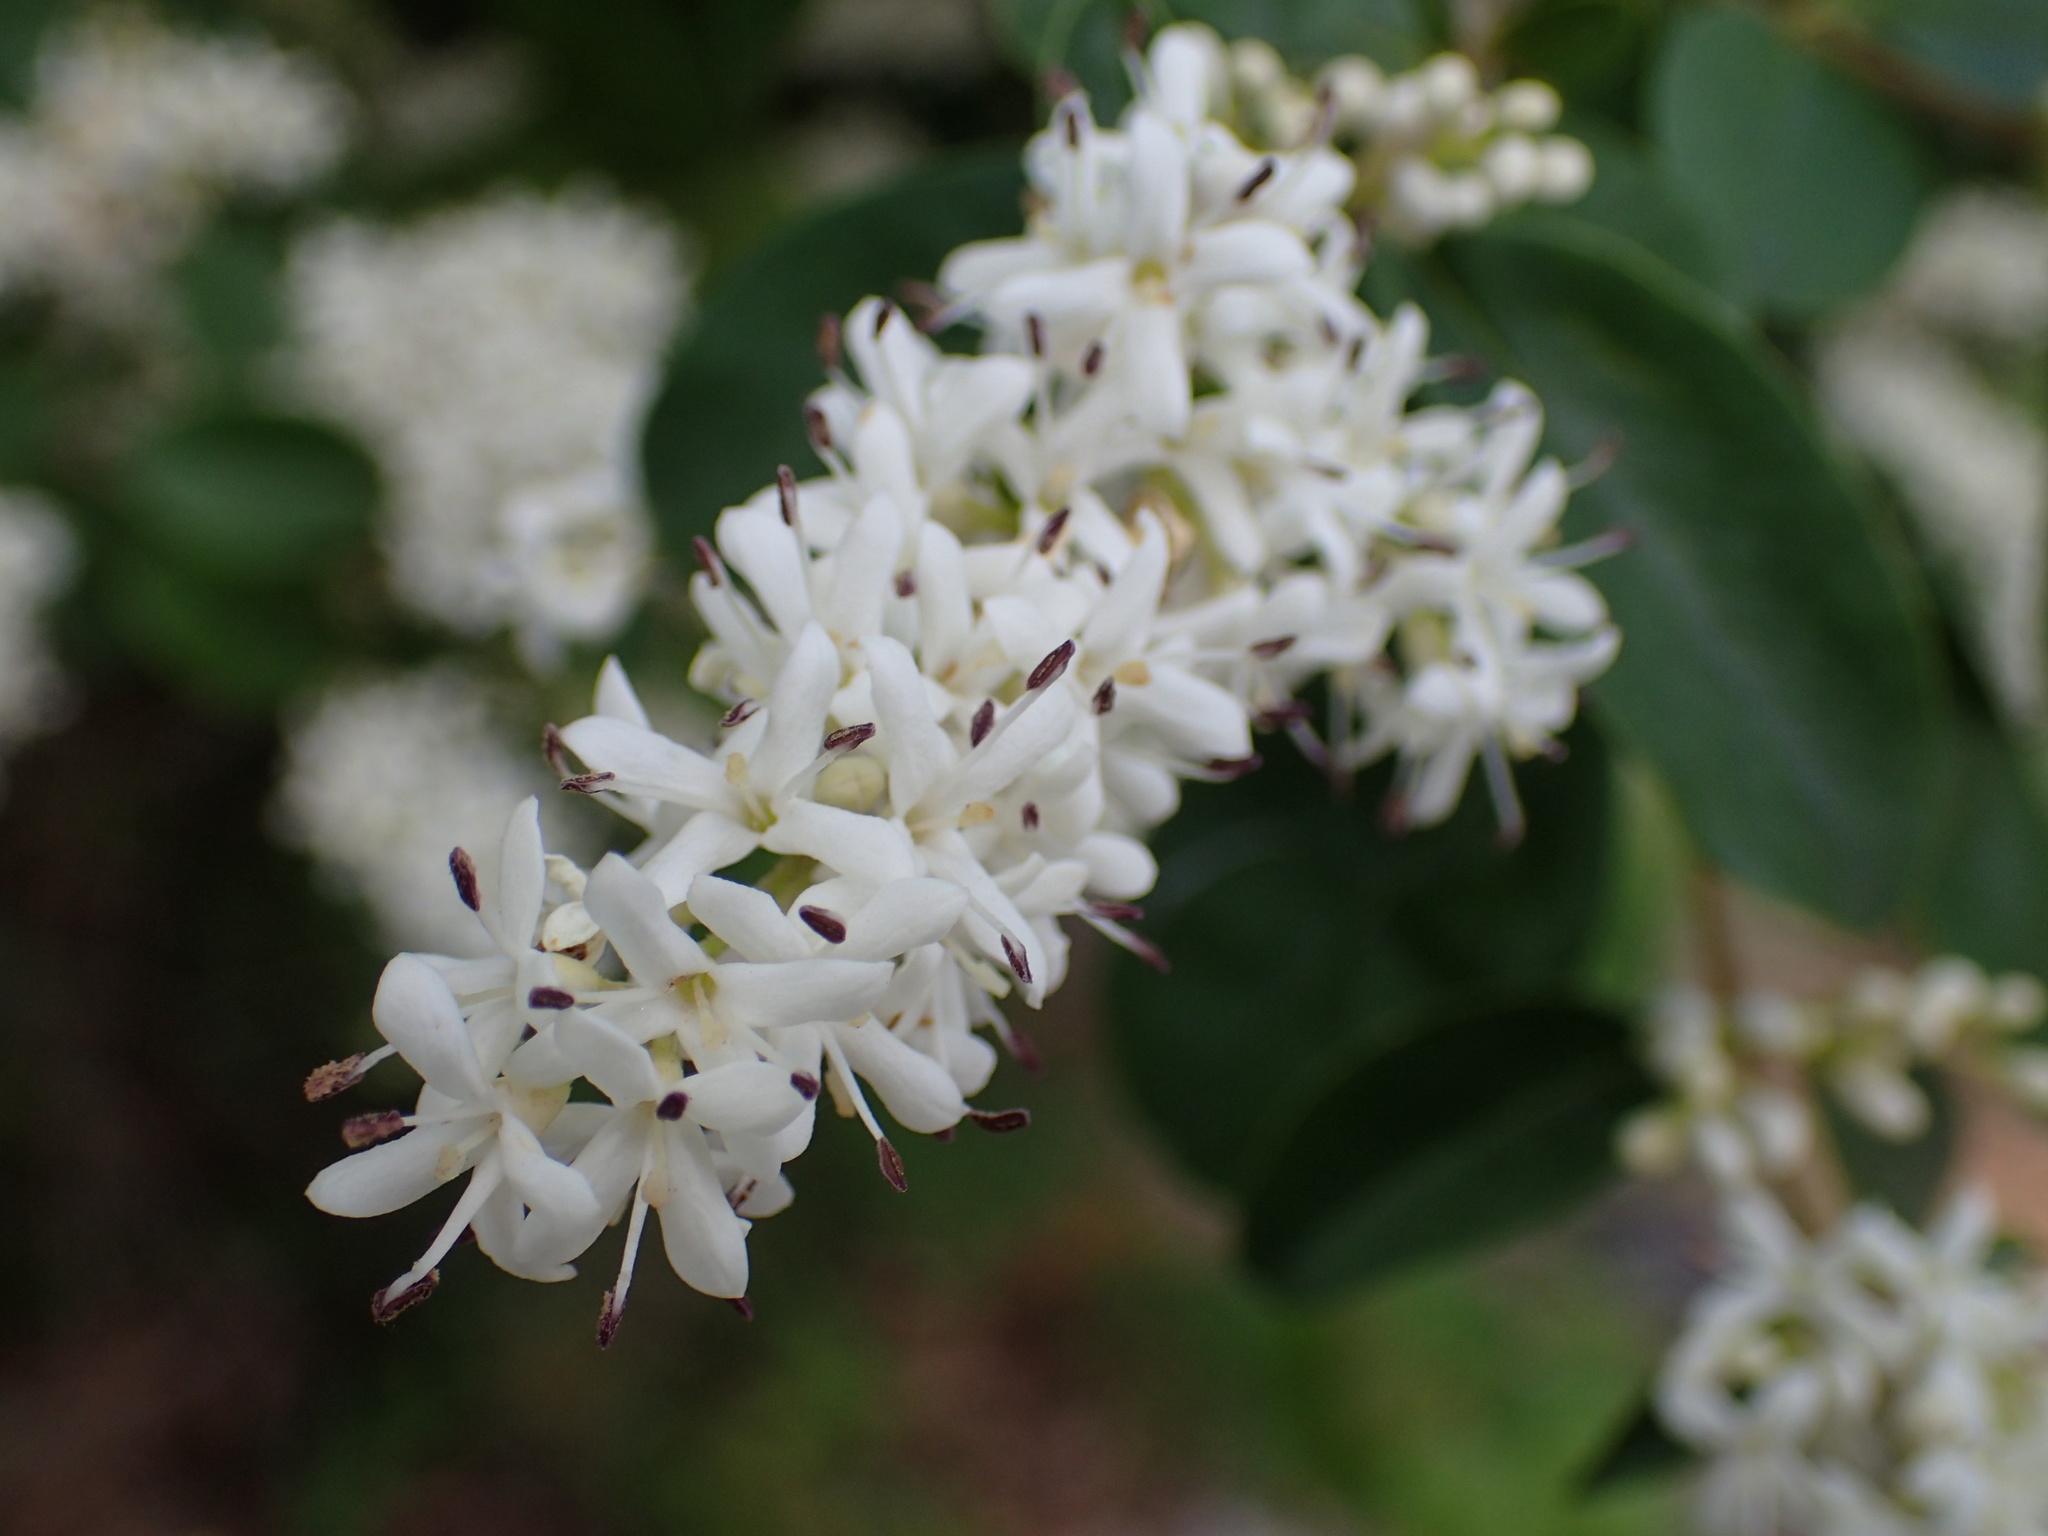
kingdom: Plantae
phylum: Tracheophyta
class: Magnoliopsida
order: Lamiales
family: Oleaceae
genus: Ligustrum
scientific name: Ligustrum sinense
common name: Chinese privet
